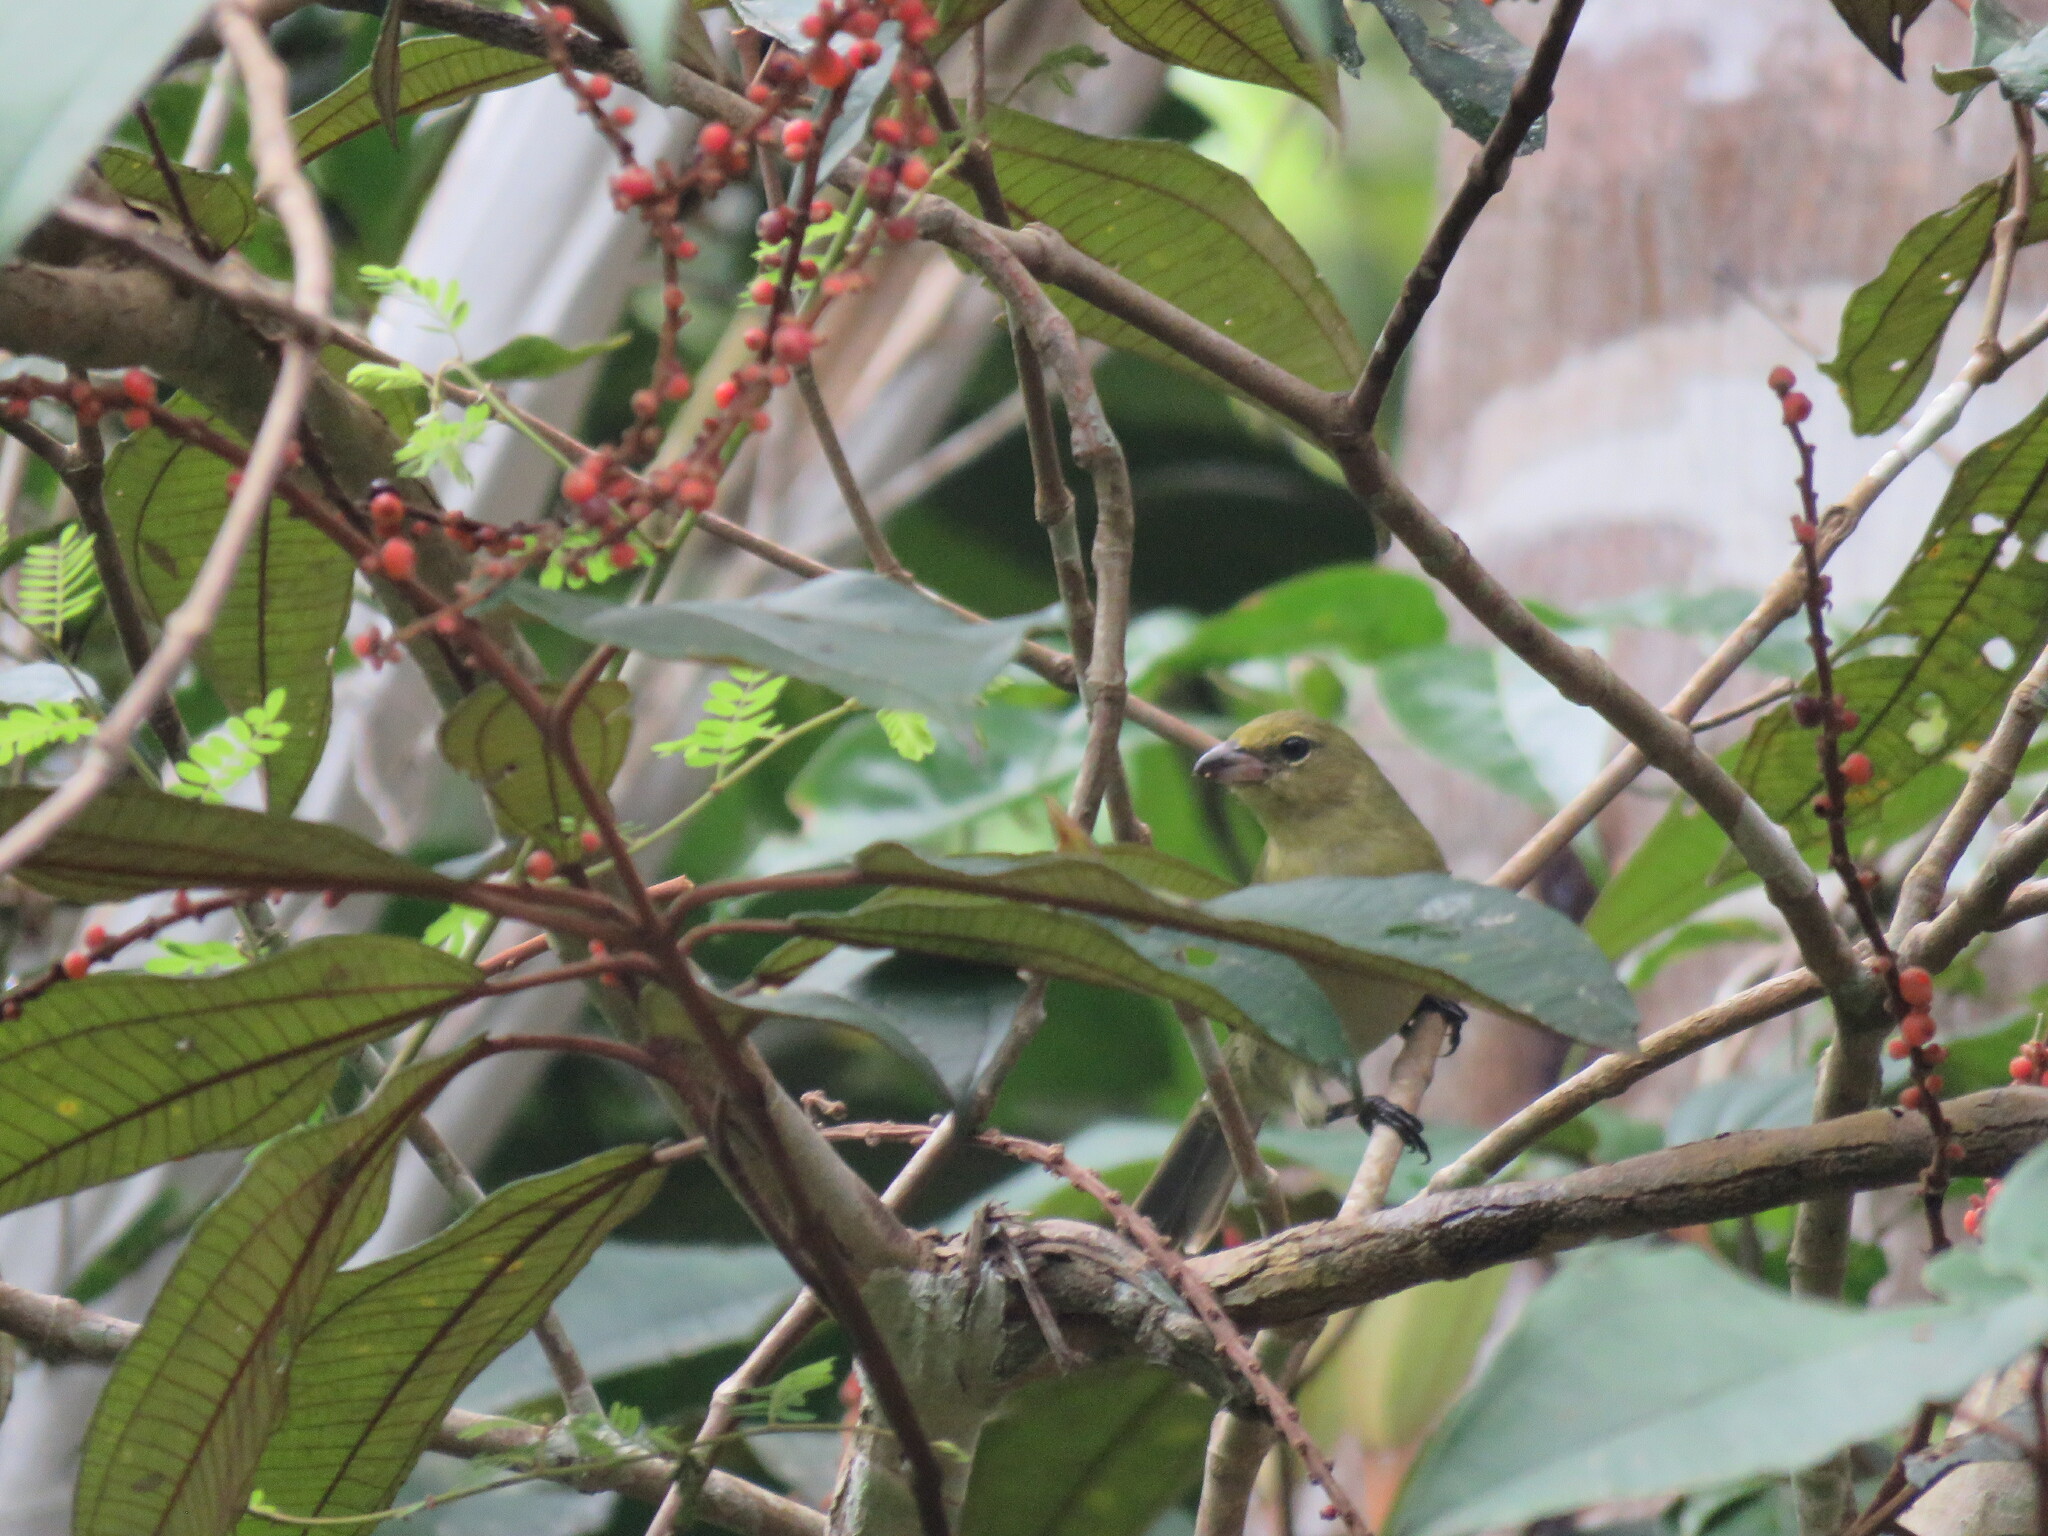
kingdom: Animalia
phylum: Chordata
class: Aves
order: Passeriformes
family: Thraupidae
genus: Schistochlamys
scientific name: Schistochlamys melanopis
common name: Black-faced tanager
